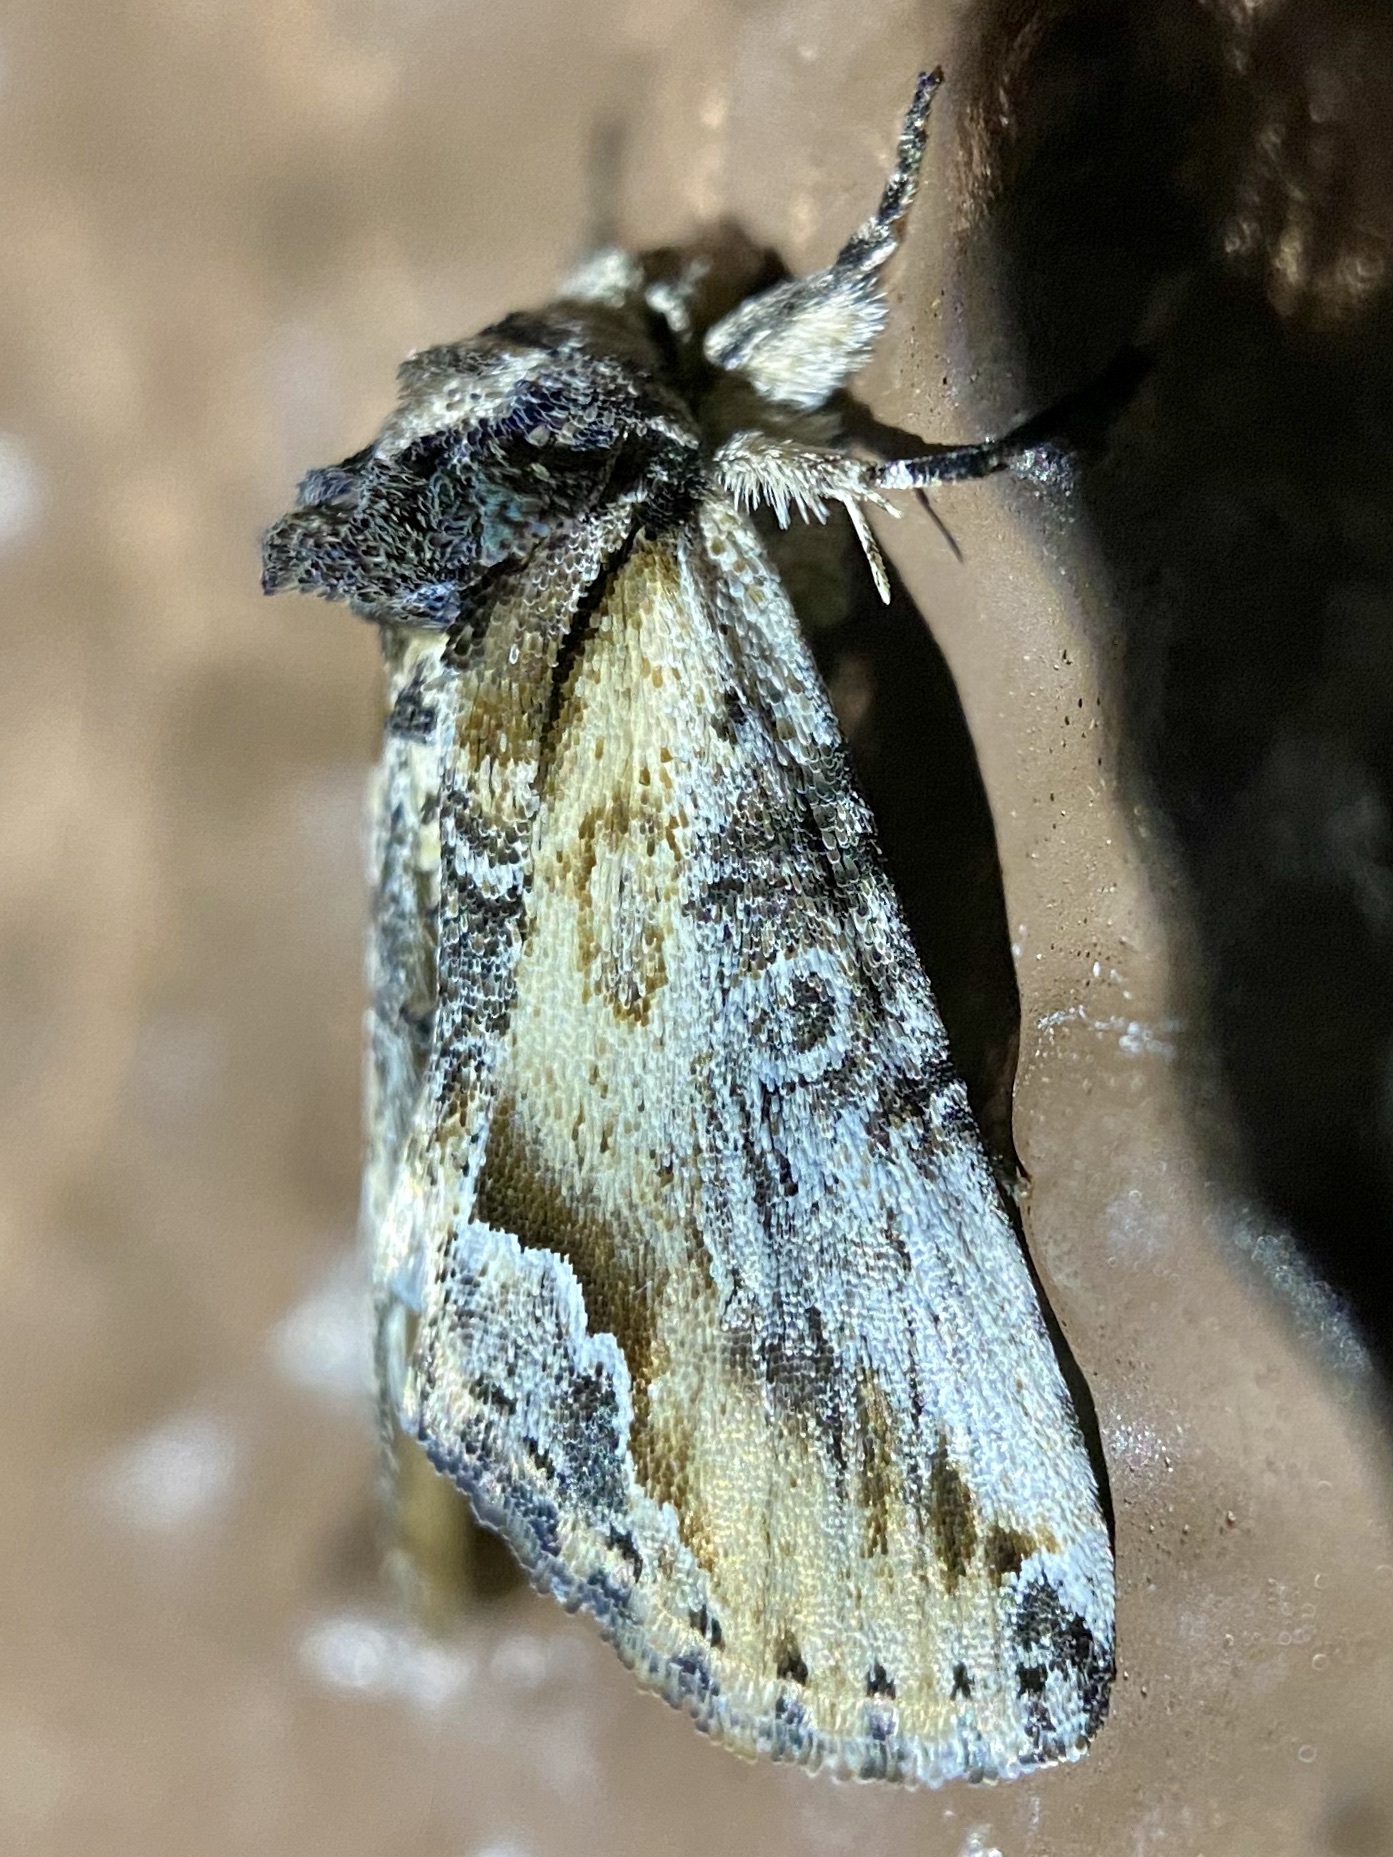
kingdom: Animalia
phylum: Arthropoda
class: Insecta
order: Lepidoptera
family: Noctuidae
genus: Prothrinax
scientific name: Prothrinax luteomedia
